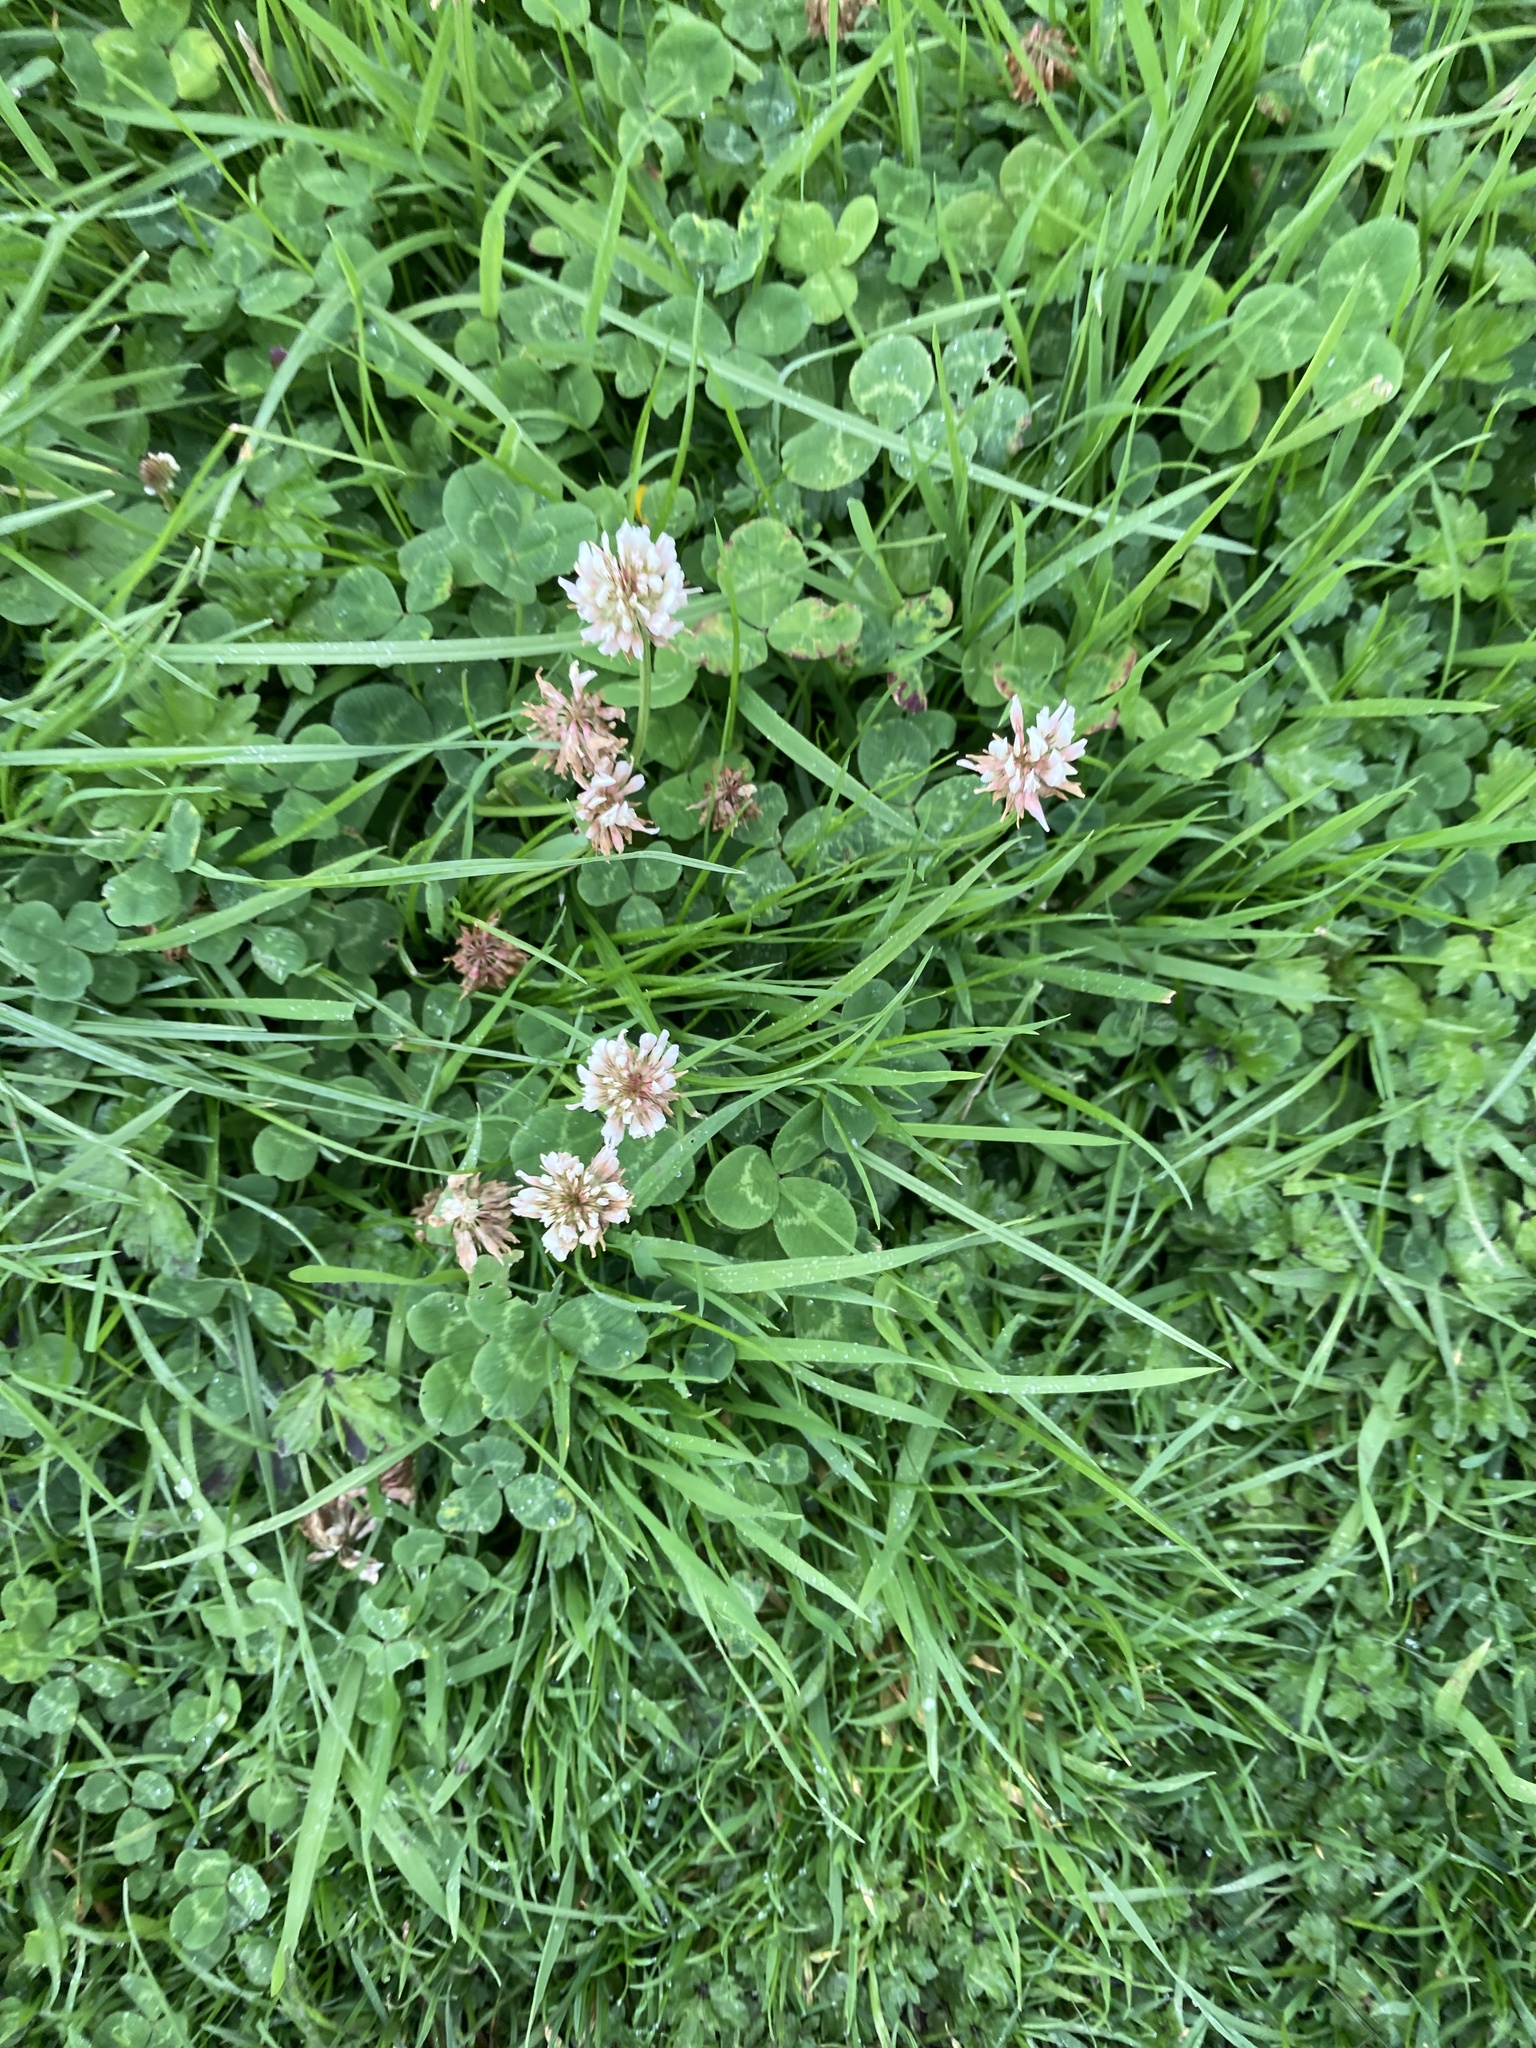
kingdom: Plantae
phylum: Tracheophyta
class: Magnoliopsida
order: Fabales
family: Fabaceae
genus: Trifolium
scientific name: Trifolium repens
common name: White clover
